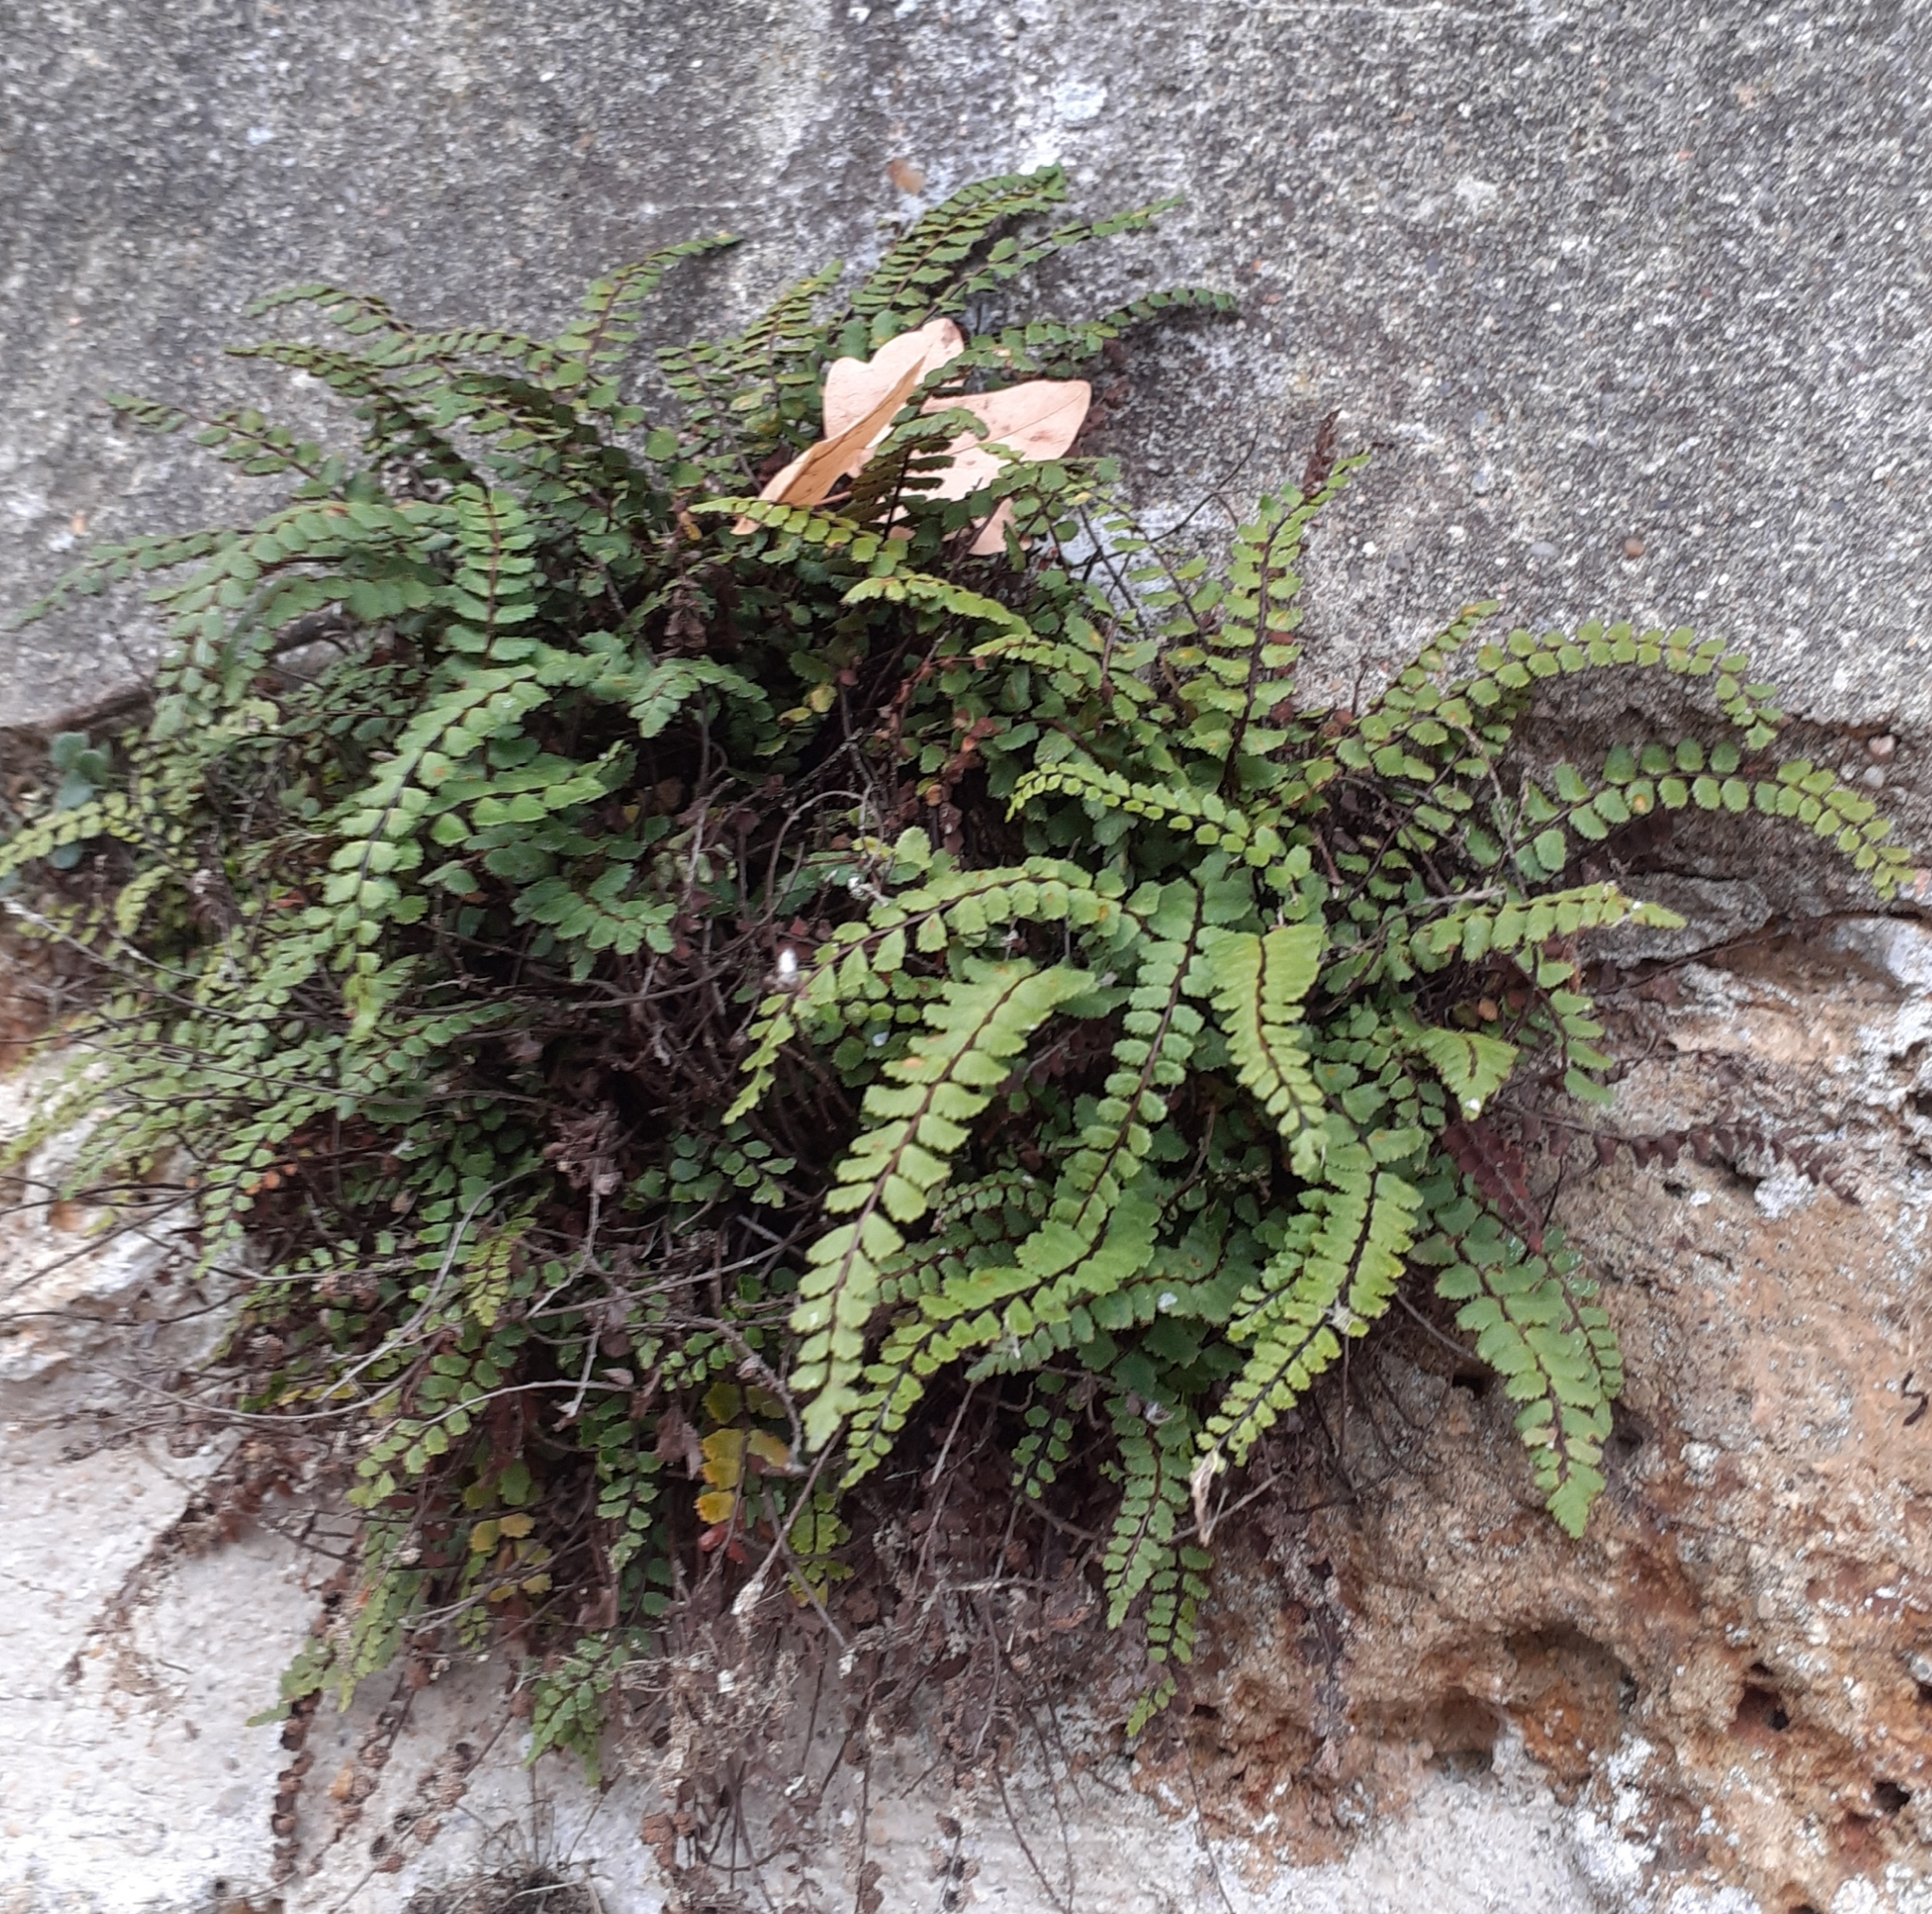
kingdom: Plantae
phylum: Tracheophyta
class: Polypodiopsida
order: Polypodiales
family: Aspleniaceae
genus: Asplenium
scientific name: Asplenium trichomanes
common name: Maidenhair spleenwort
